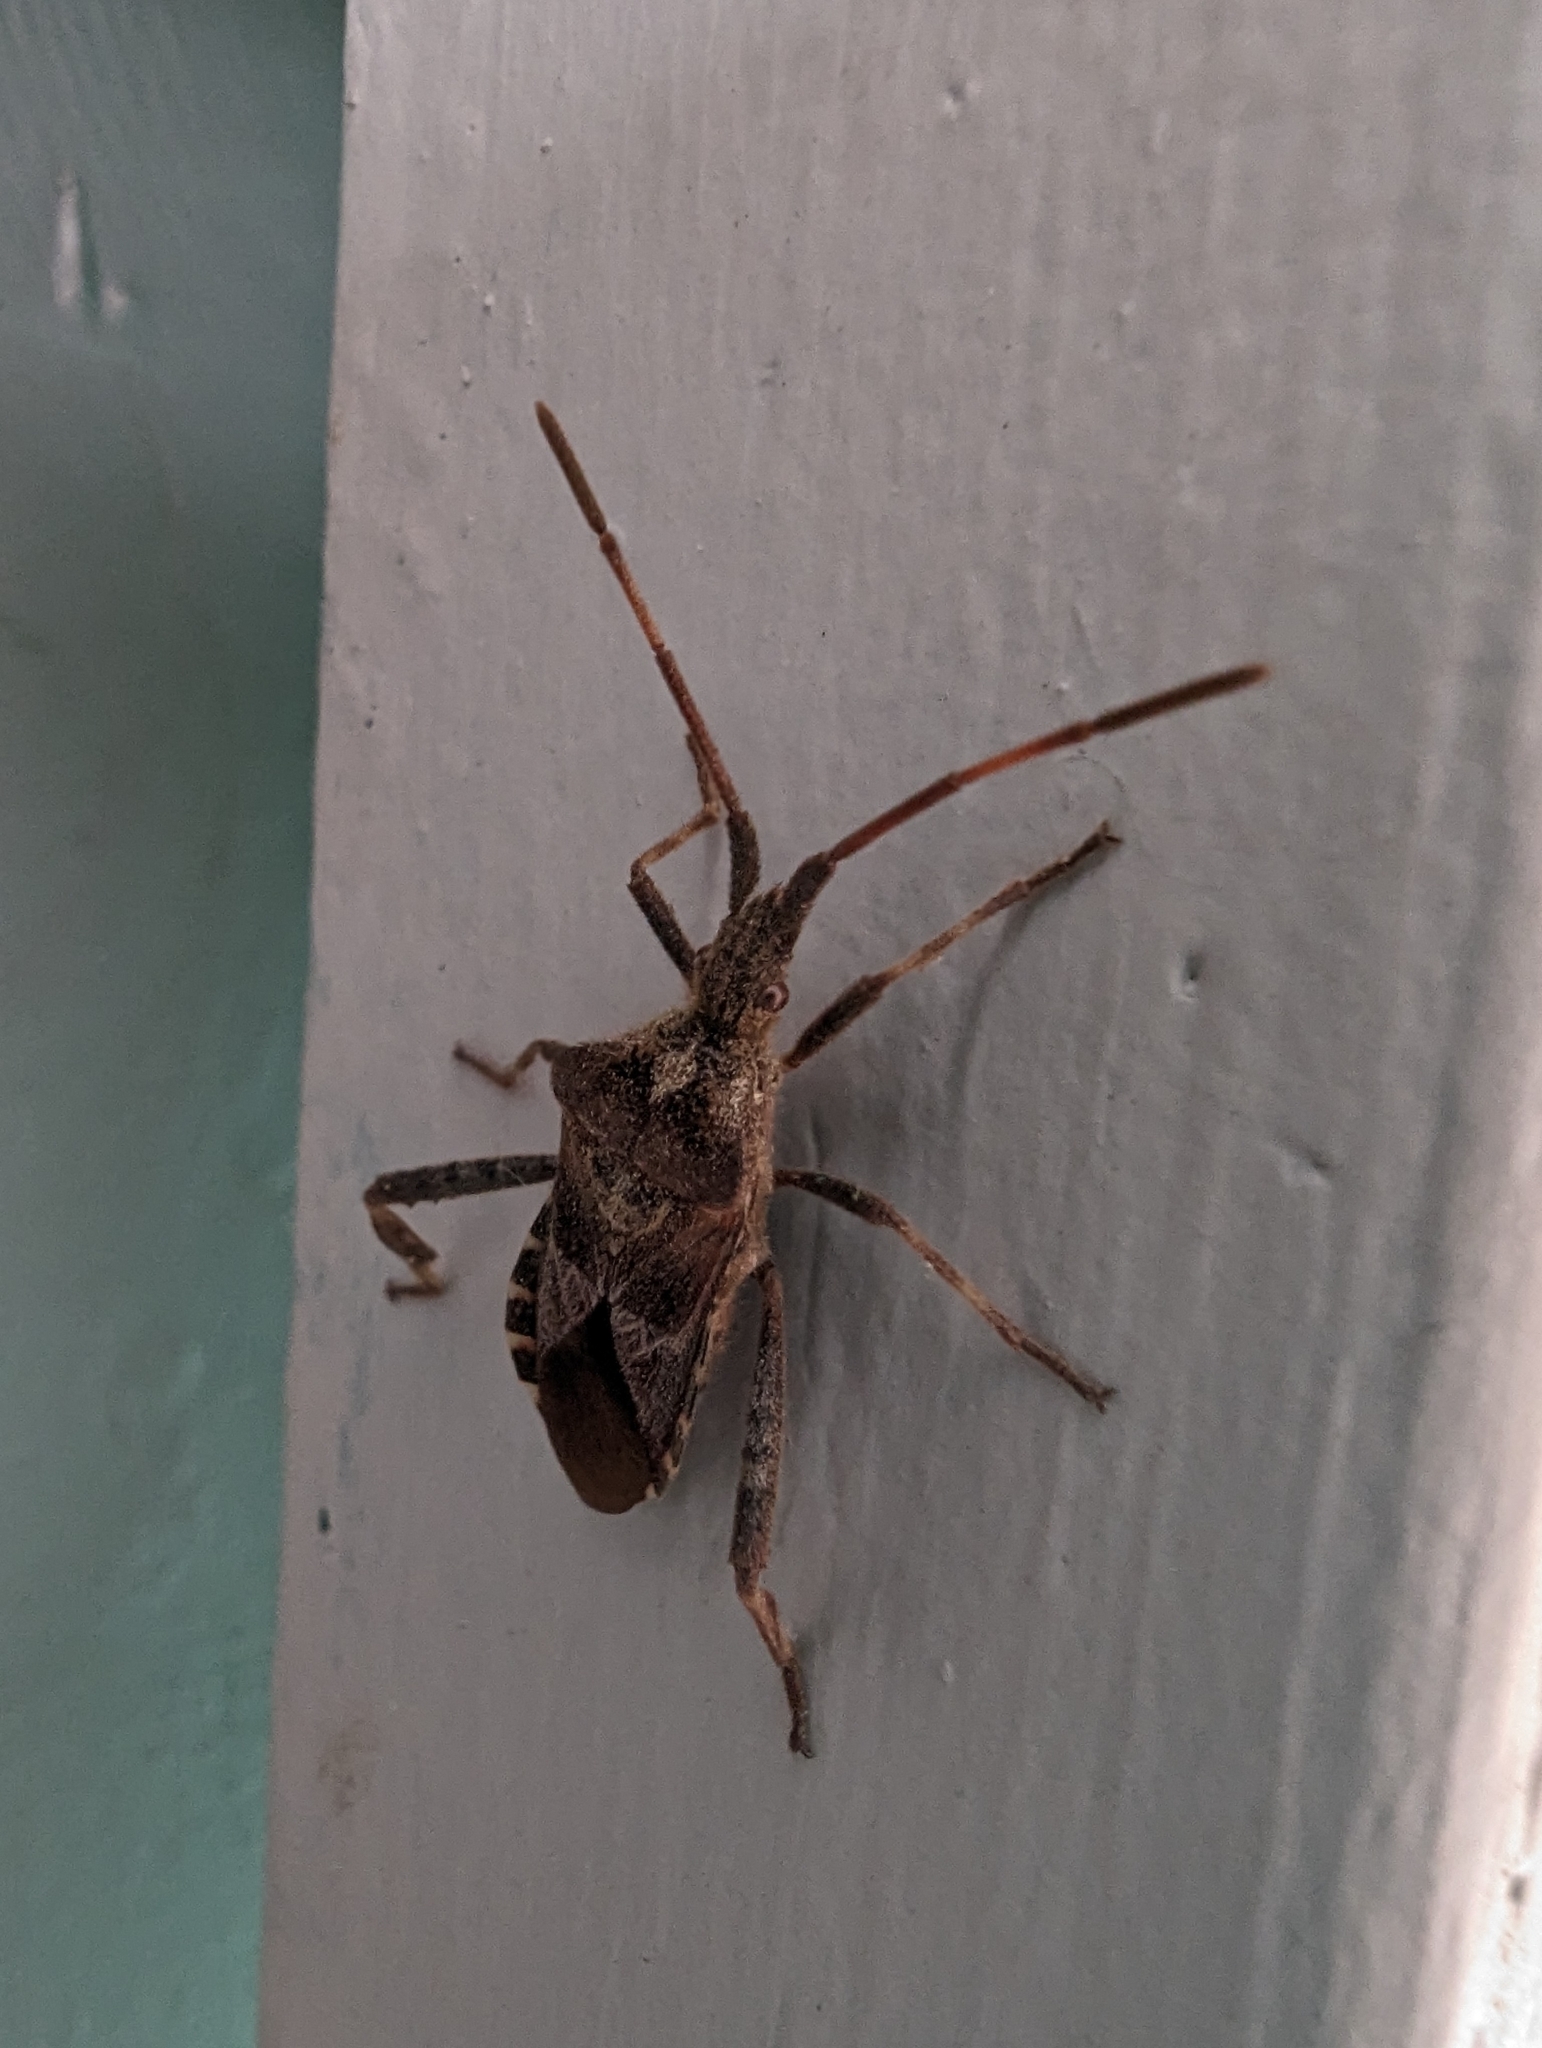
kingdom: Animalia
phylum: Arthropoda
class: Insecta
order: Hemiptera
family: Coreidae
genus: Leptoglossus
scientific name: Leptoglossus occidentalis
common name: Western conifer-seed bug
